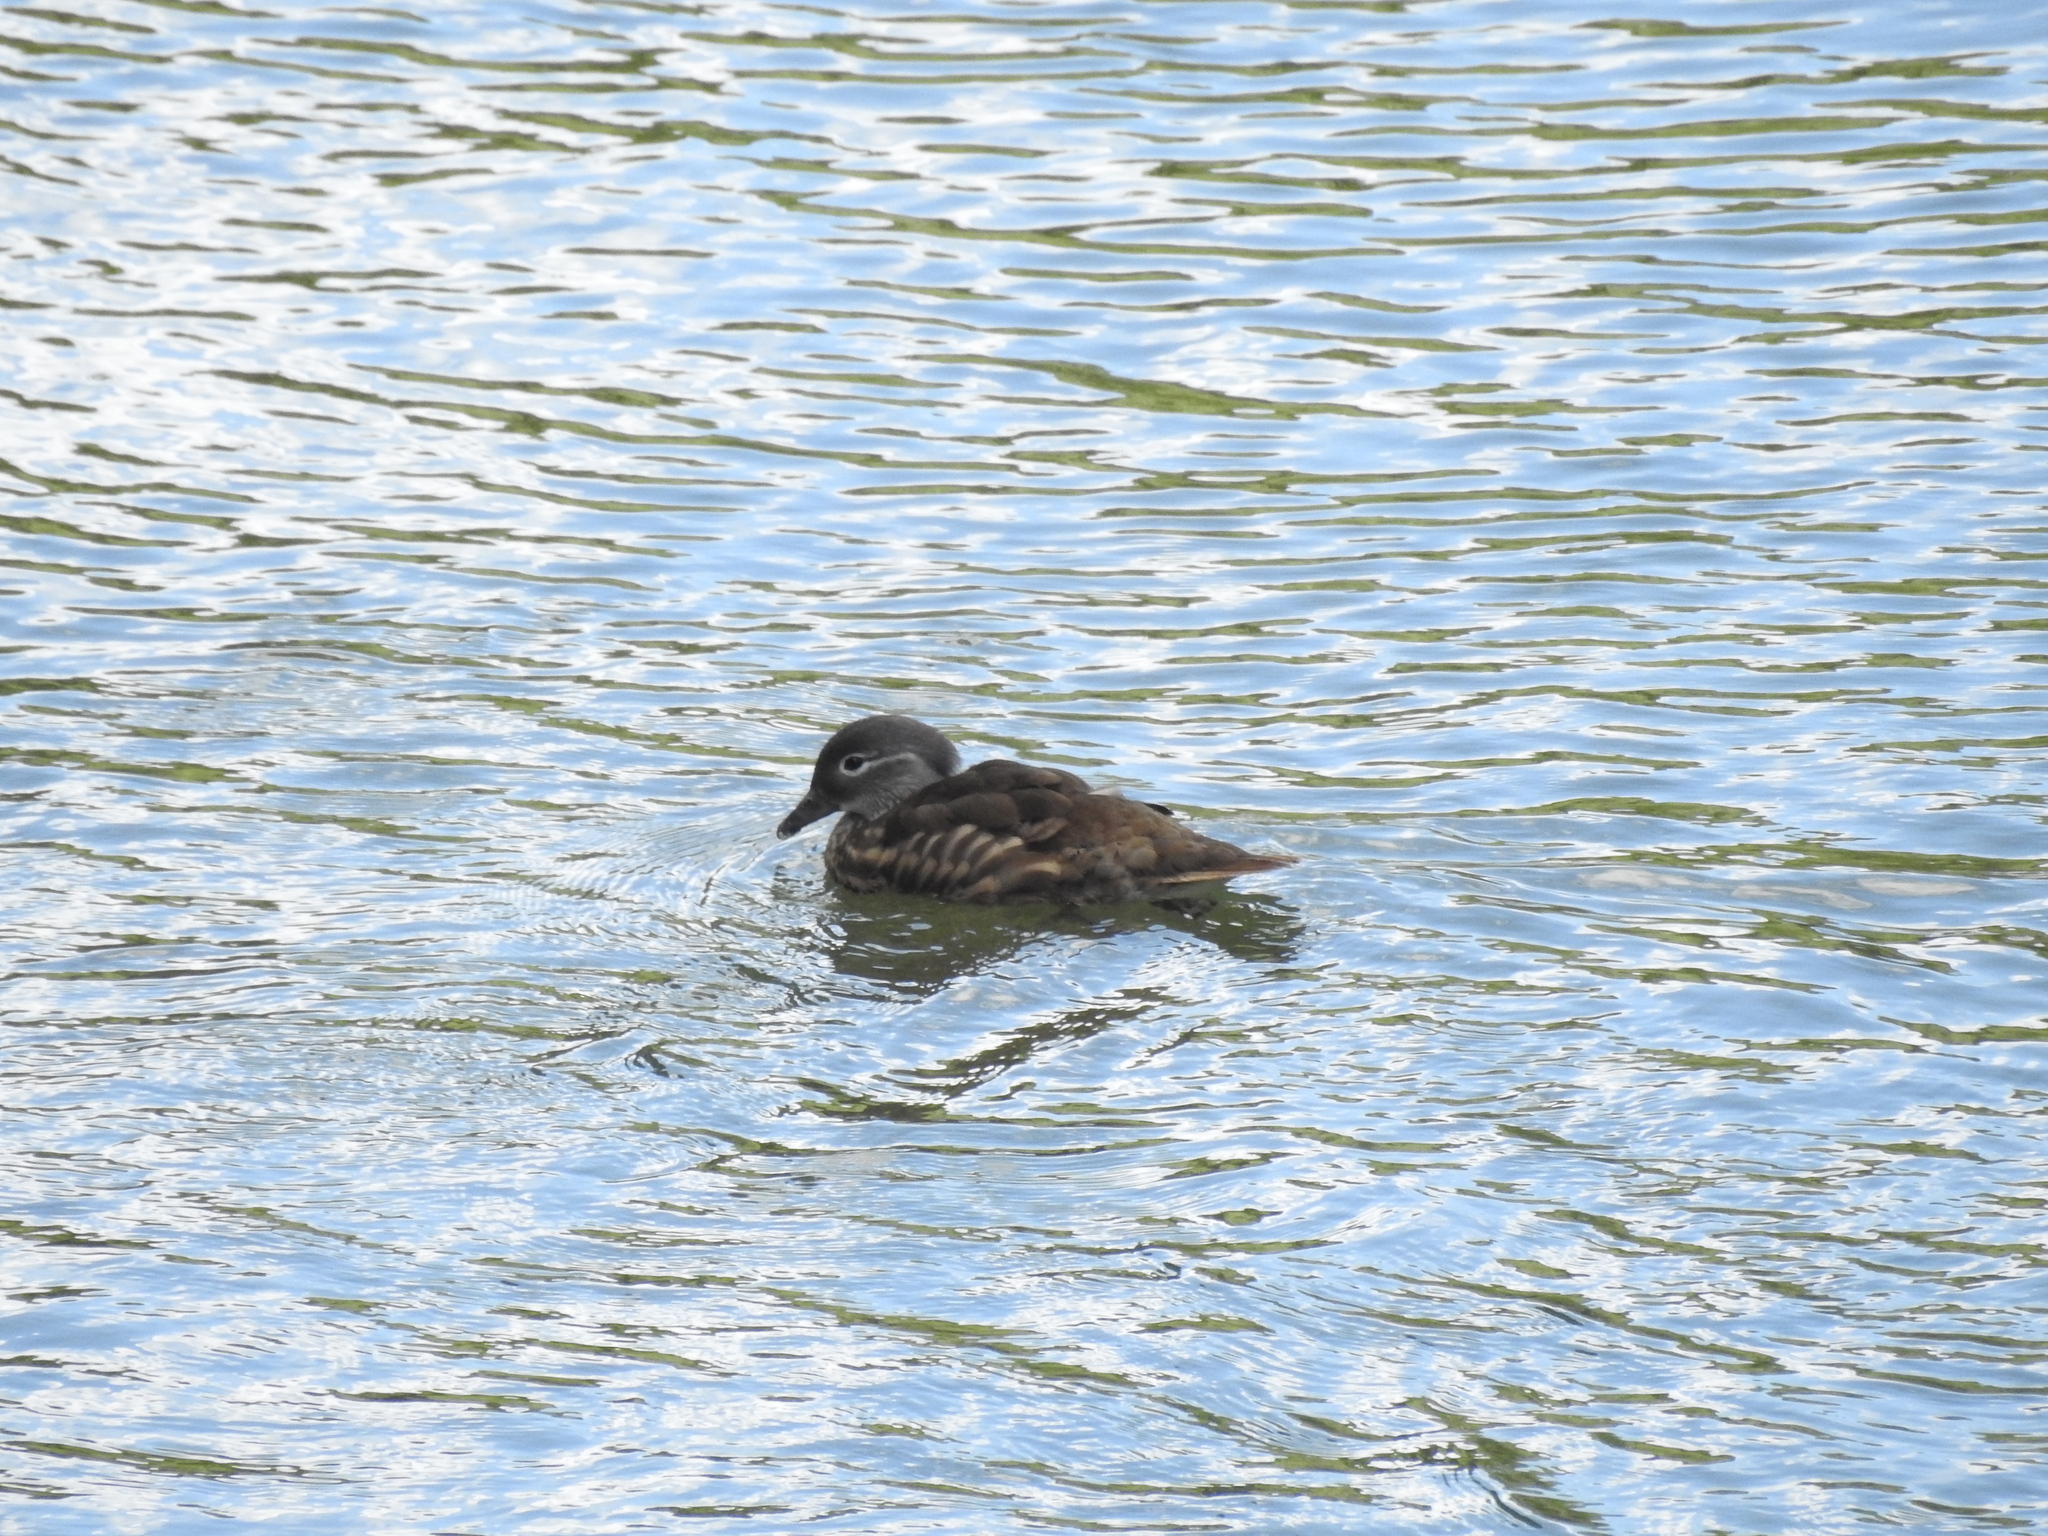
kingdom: Animalia
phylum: Chordata
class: Aves
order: Anseriformes
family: Anatidae
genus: Aix
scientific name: Aix galericulata
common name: Mandarin duck
